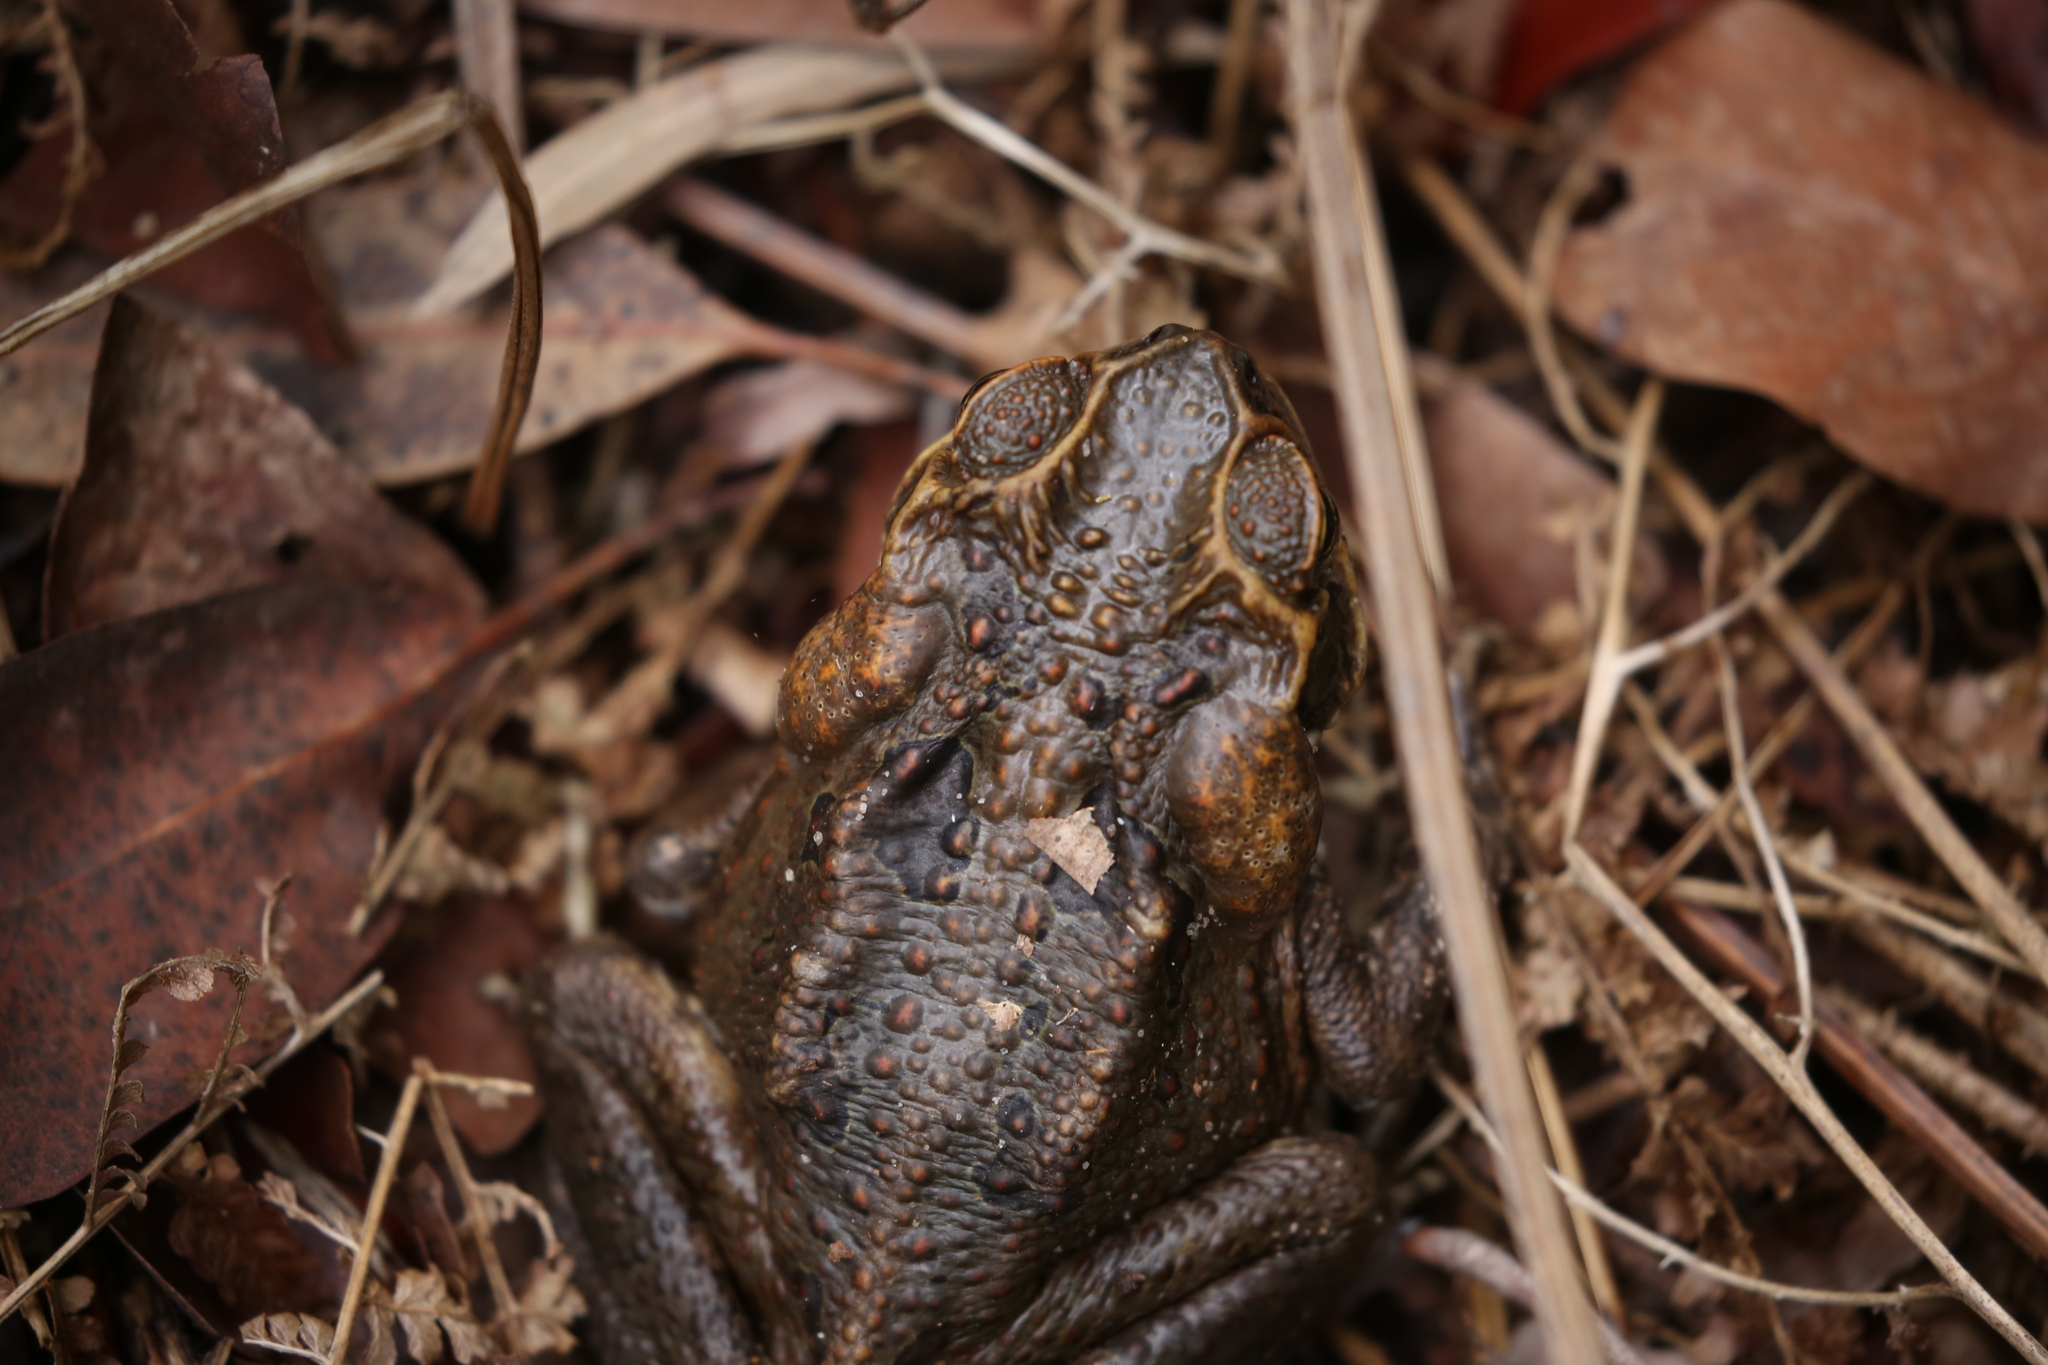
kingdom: Animalia
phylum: Chordata
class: Amphibia
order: Anura
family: Bufonidae
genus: Rhinella
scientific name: Rhinella marina
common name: Cane toad
